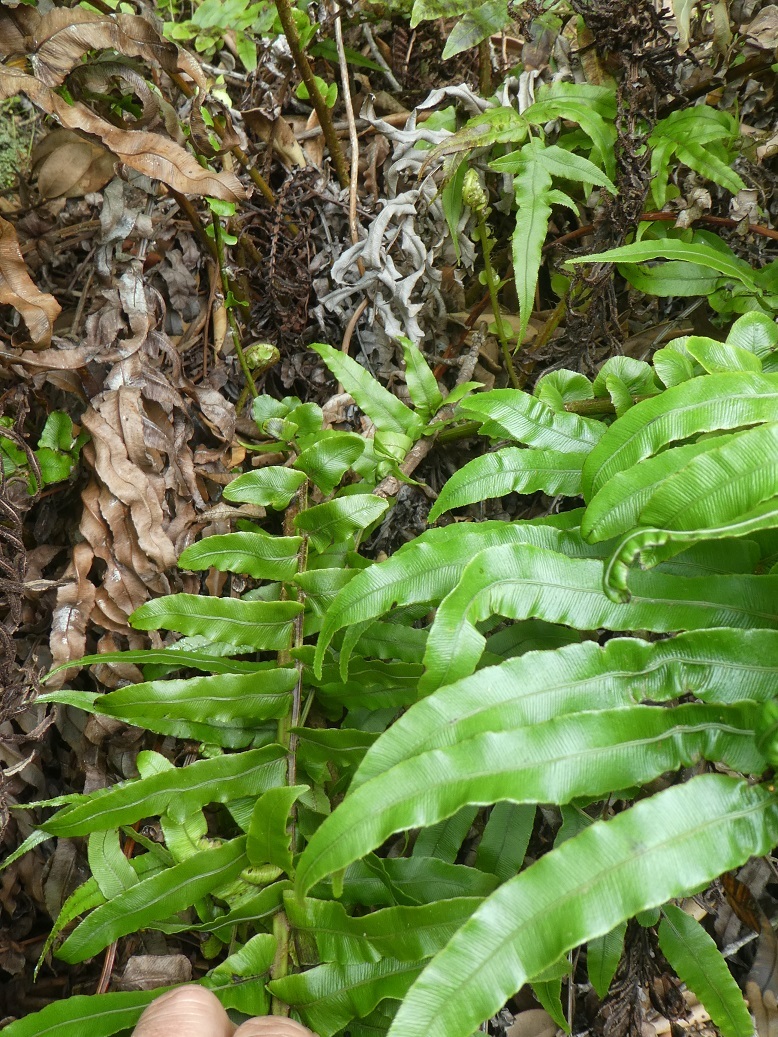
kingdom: Plantae
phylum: Tracheophyta
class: Polypodiopsida
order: Polypodiales
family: Blechnaceae
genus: Parablechnum
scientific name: Parablechnum novae-zelandiae
